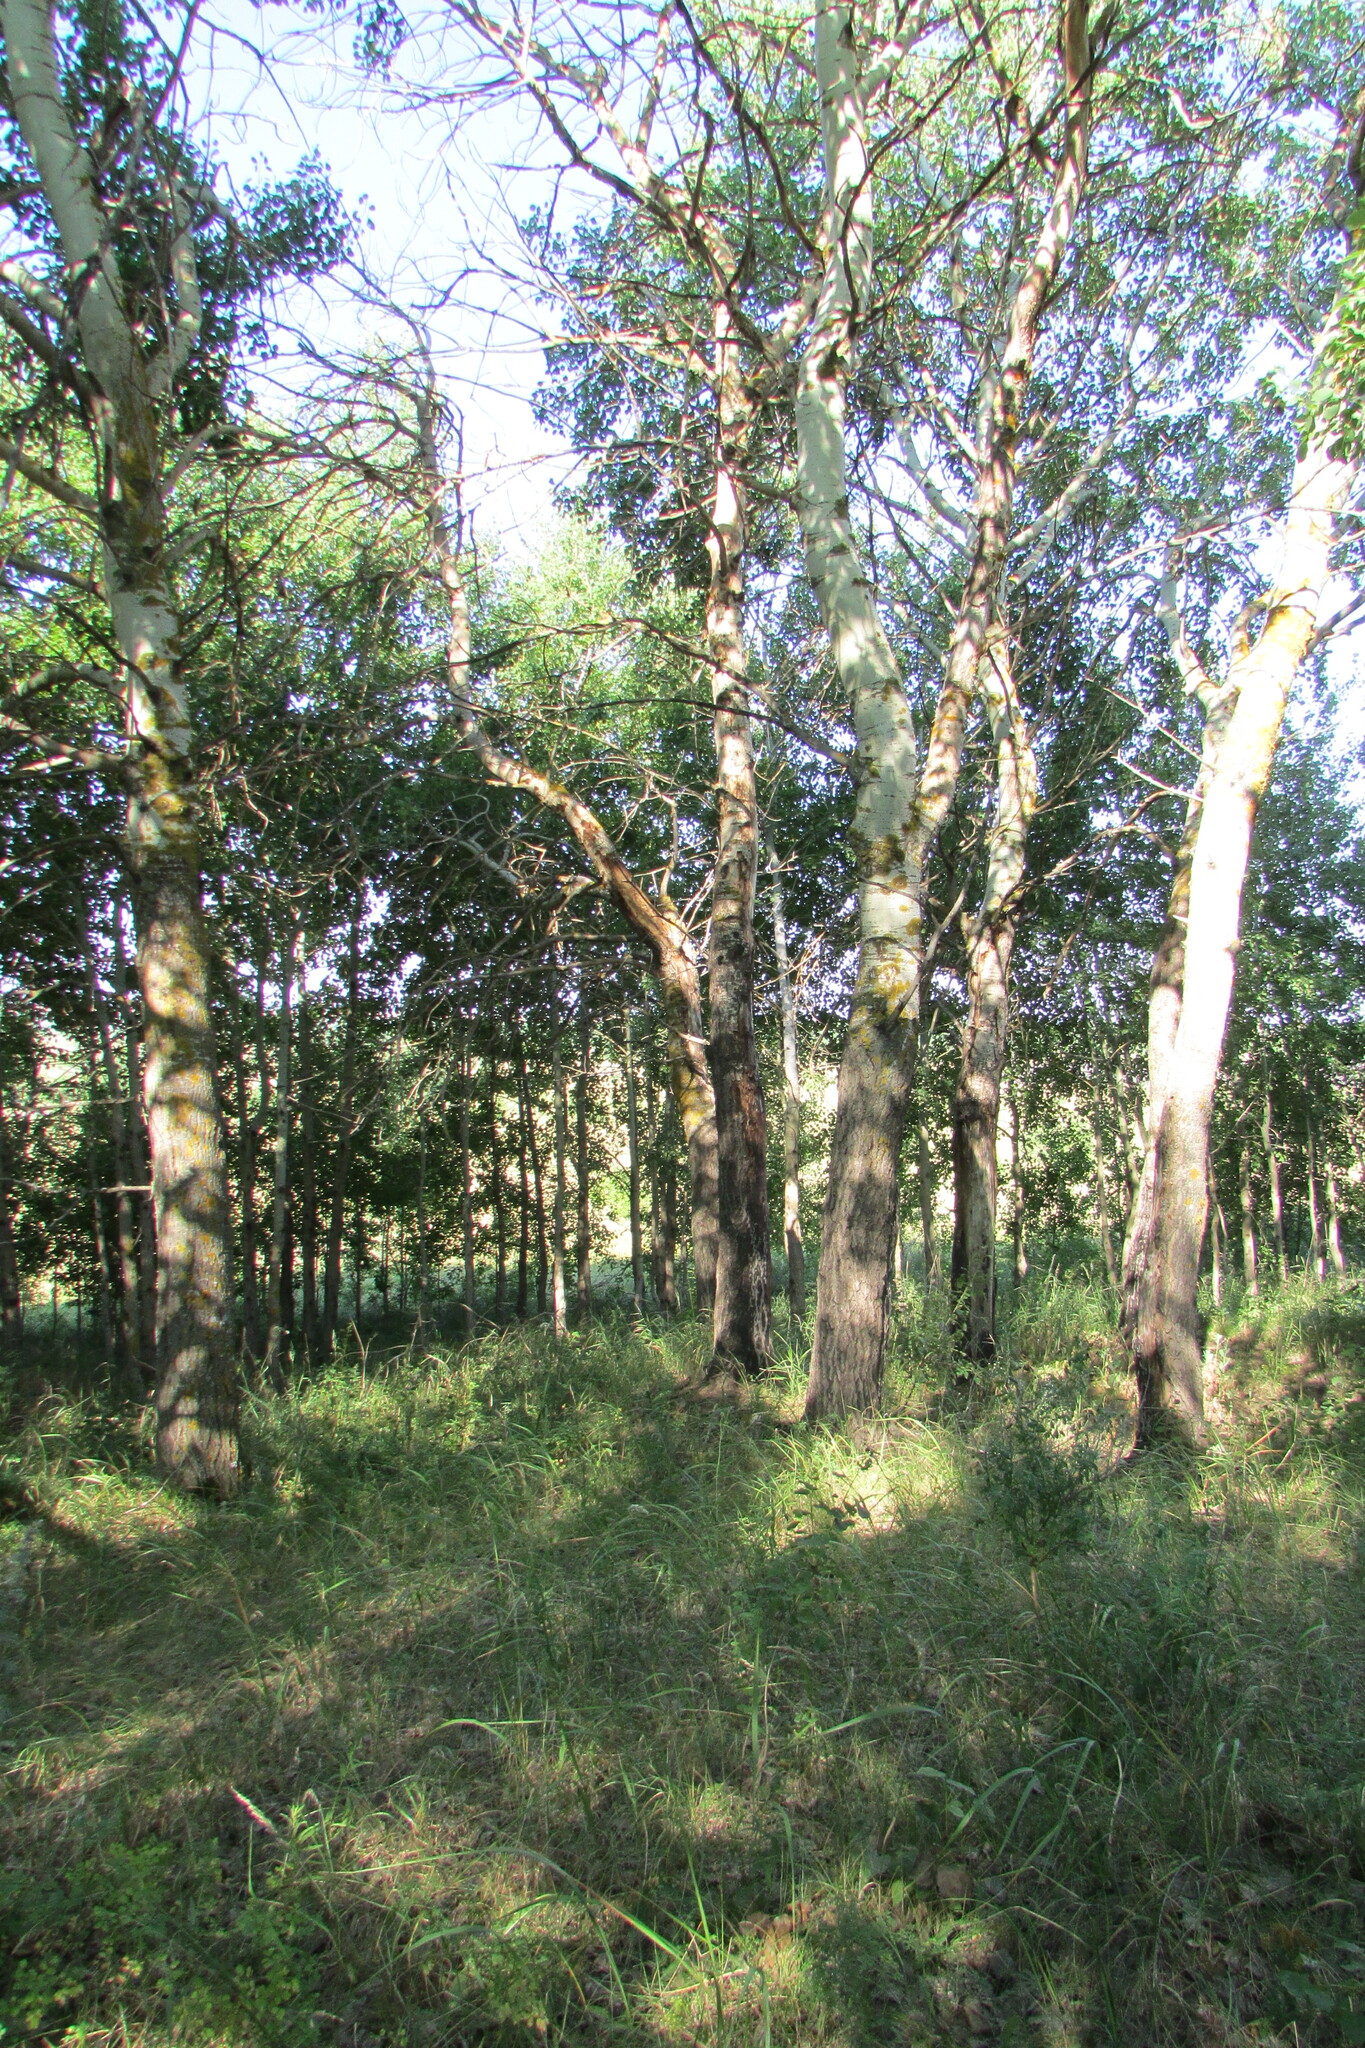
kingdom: Plantae
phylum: Tracheophyta
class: Magnoliopsida
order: Malpighiales
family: Salicaceae
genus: Populus
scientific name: Populus tremula
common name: European aspen
